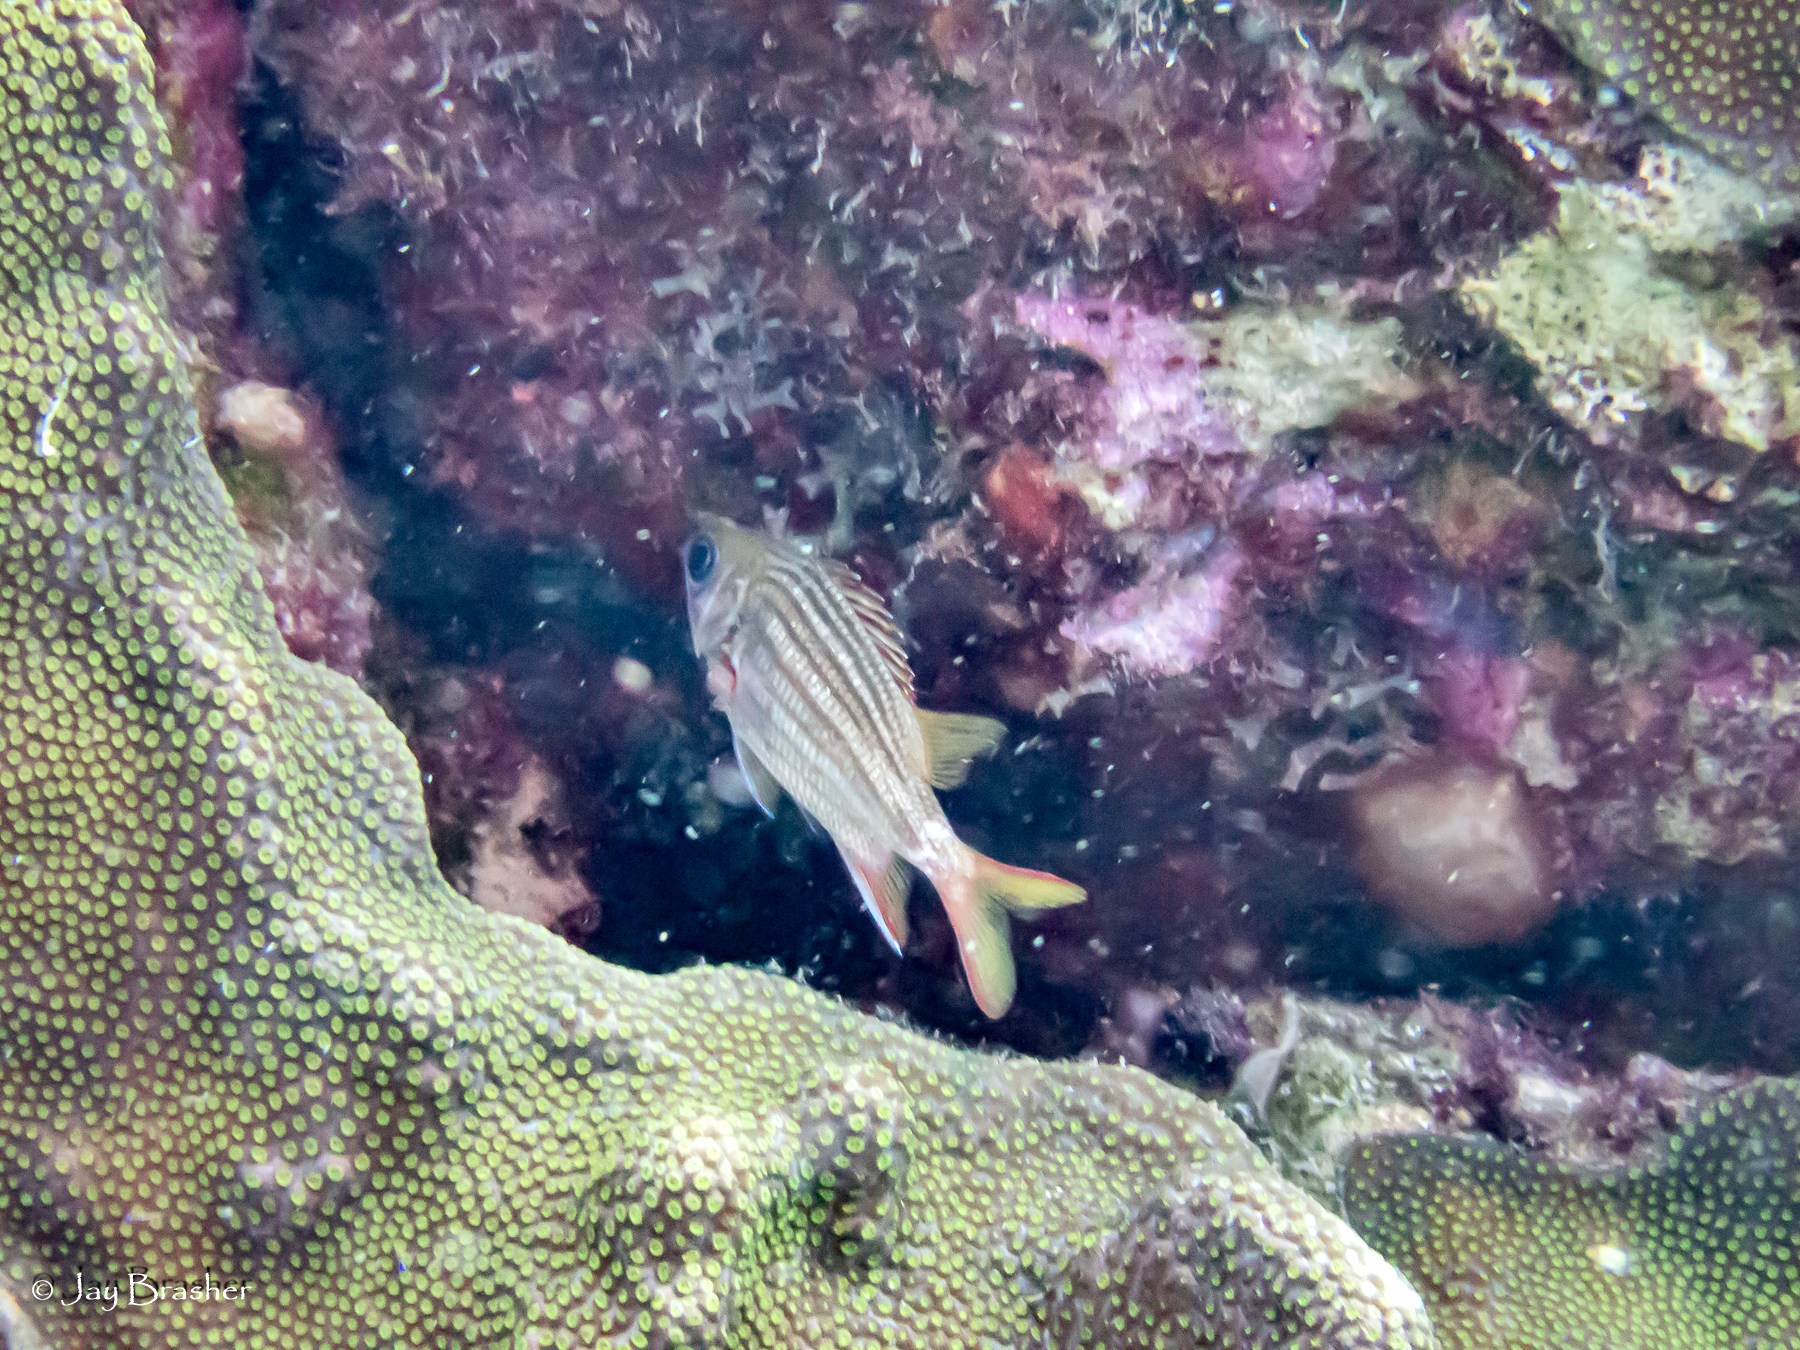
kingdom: Animalia
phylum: Cnidaria
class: Anthozoa
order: Scleractinia
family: Merulinidae
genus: Orbicella
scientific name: Orbicella faveolata
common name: Mountainous star coral
